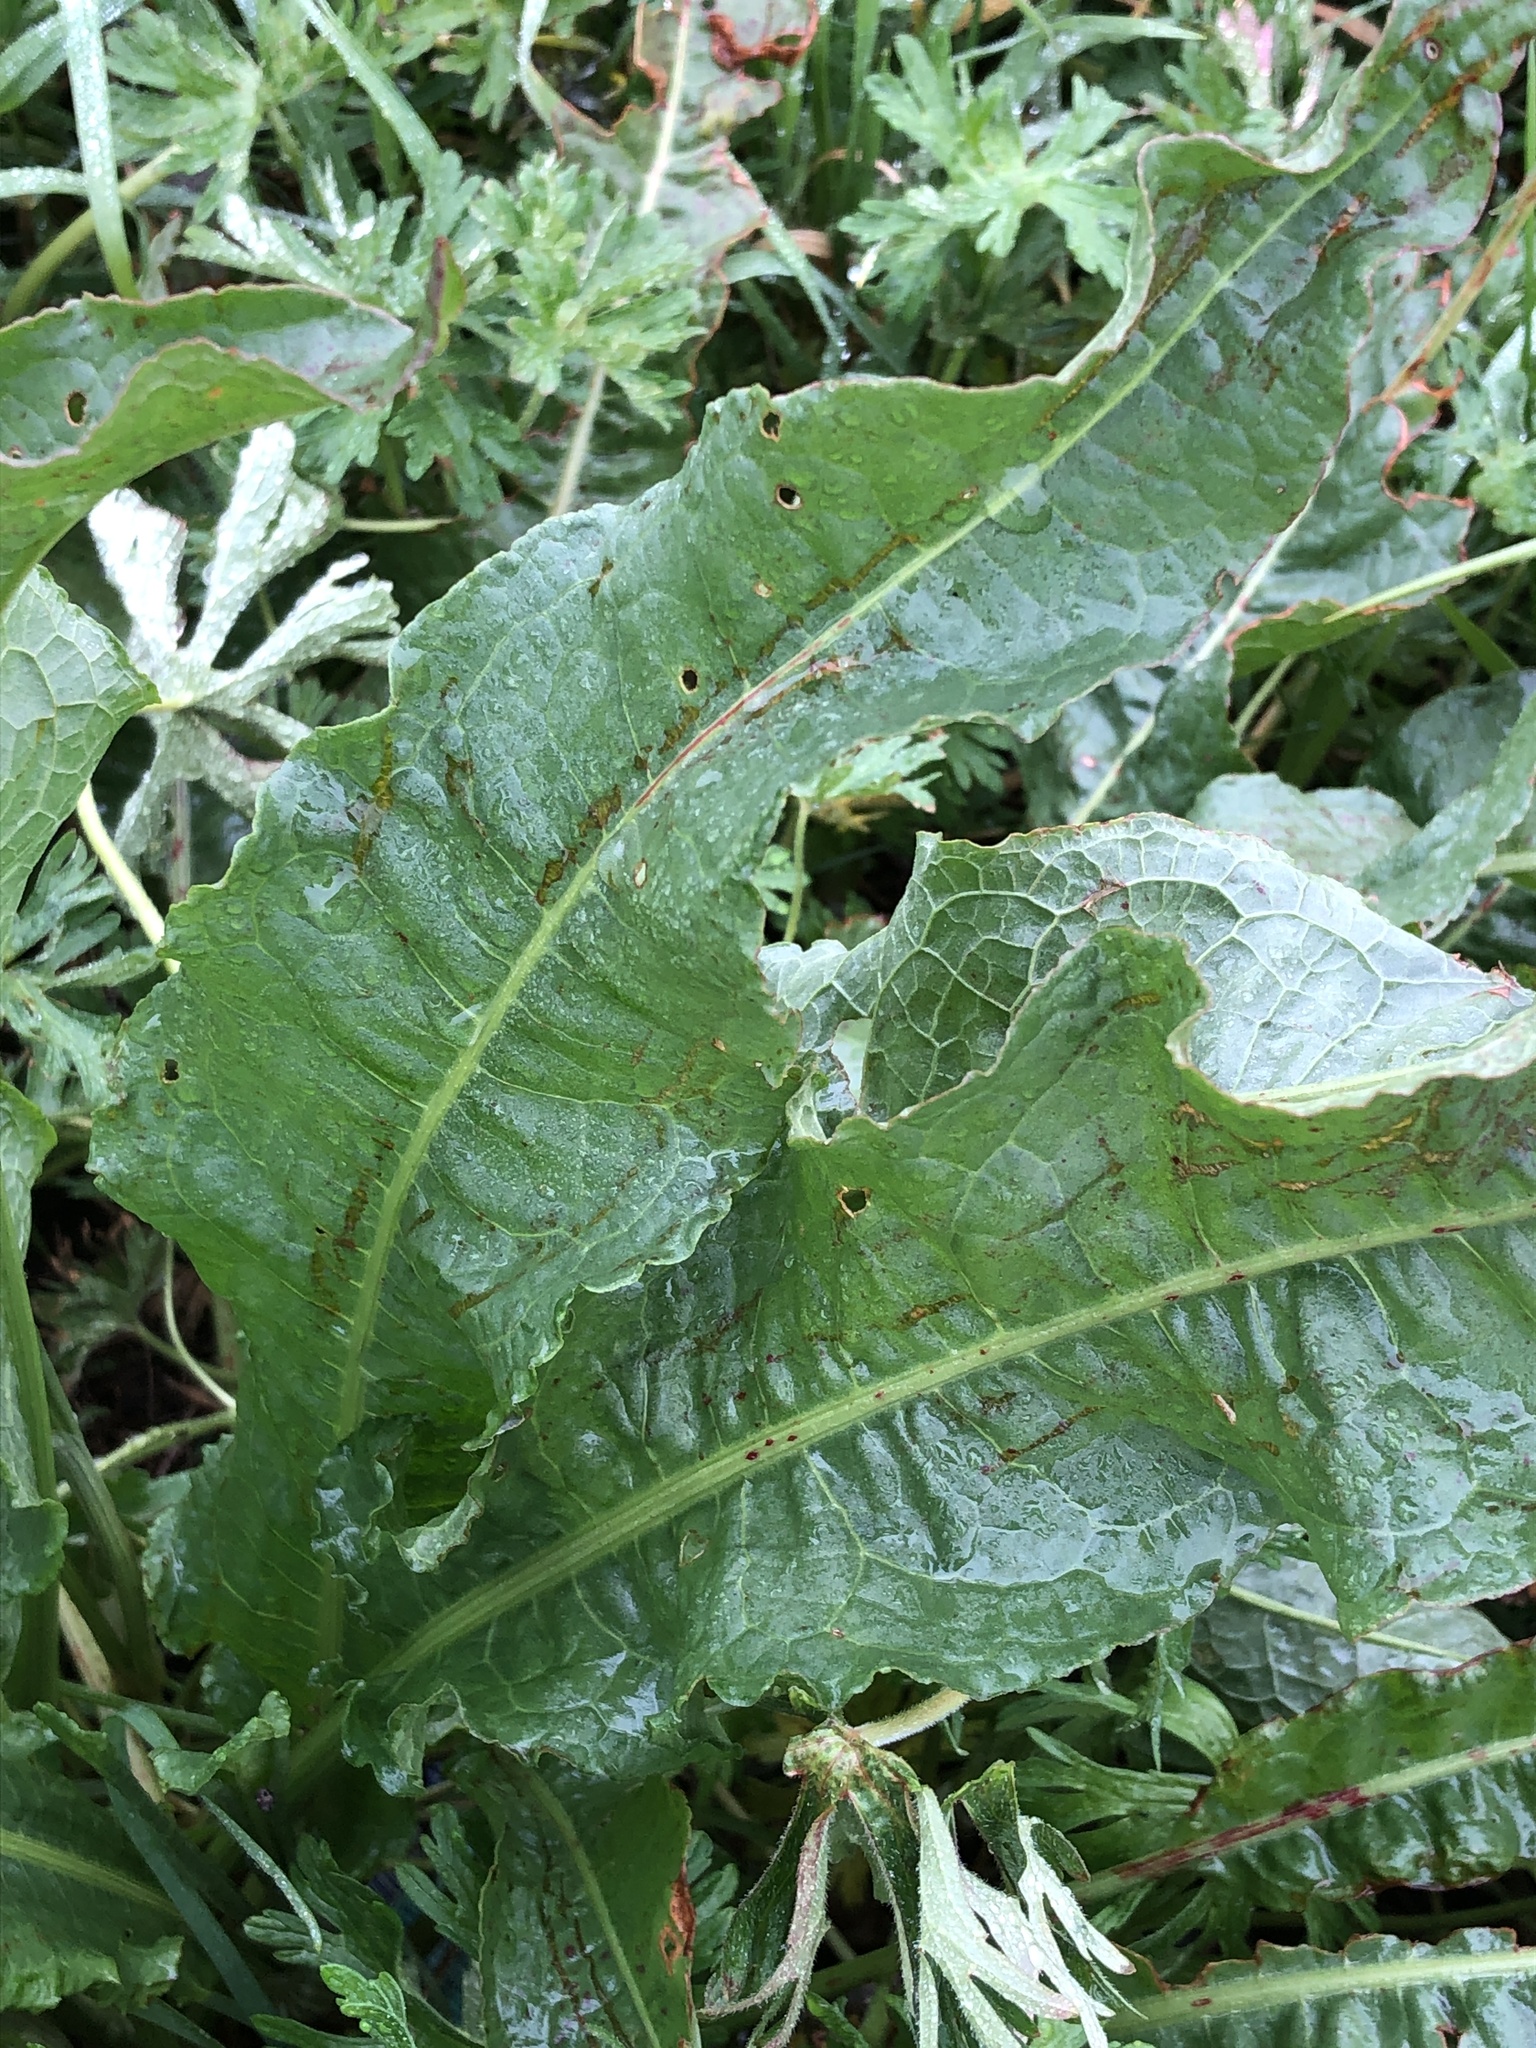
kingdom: Plantae
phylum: Tracheophyta
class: Magnoliopsida
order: Caryophyllales
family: Polygonaceae
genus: Rumex
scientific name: Rumex crispus
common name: Curled dock
